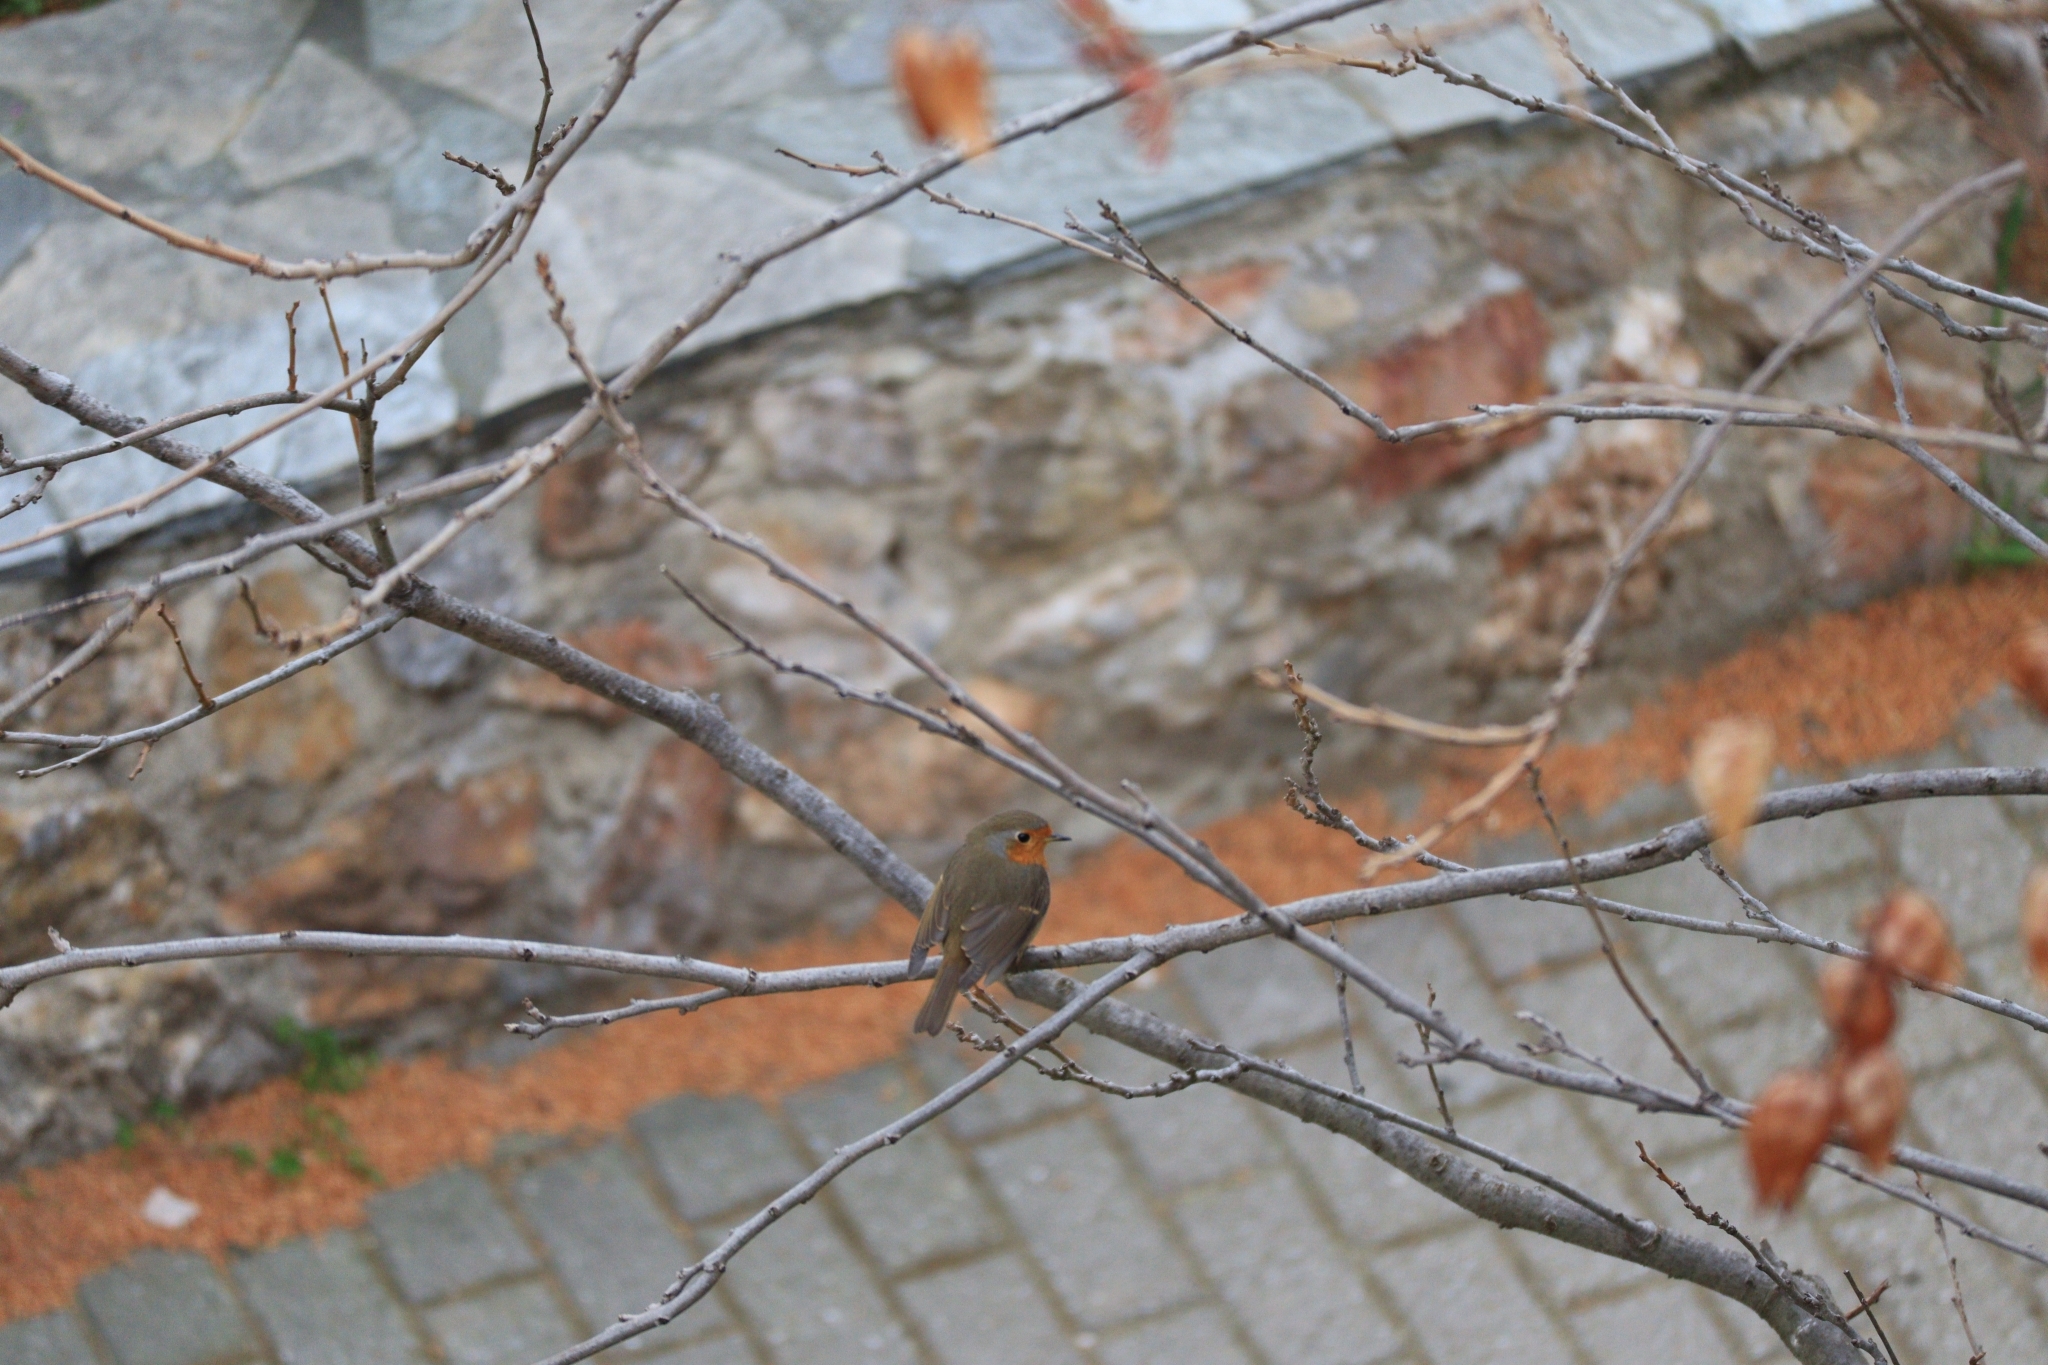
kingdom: Animalia
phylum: Chordata
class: Aves
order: Passeriformes
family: Muscicapidae
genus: Erithacus
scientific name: Erithacus rubecula
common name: European robin
